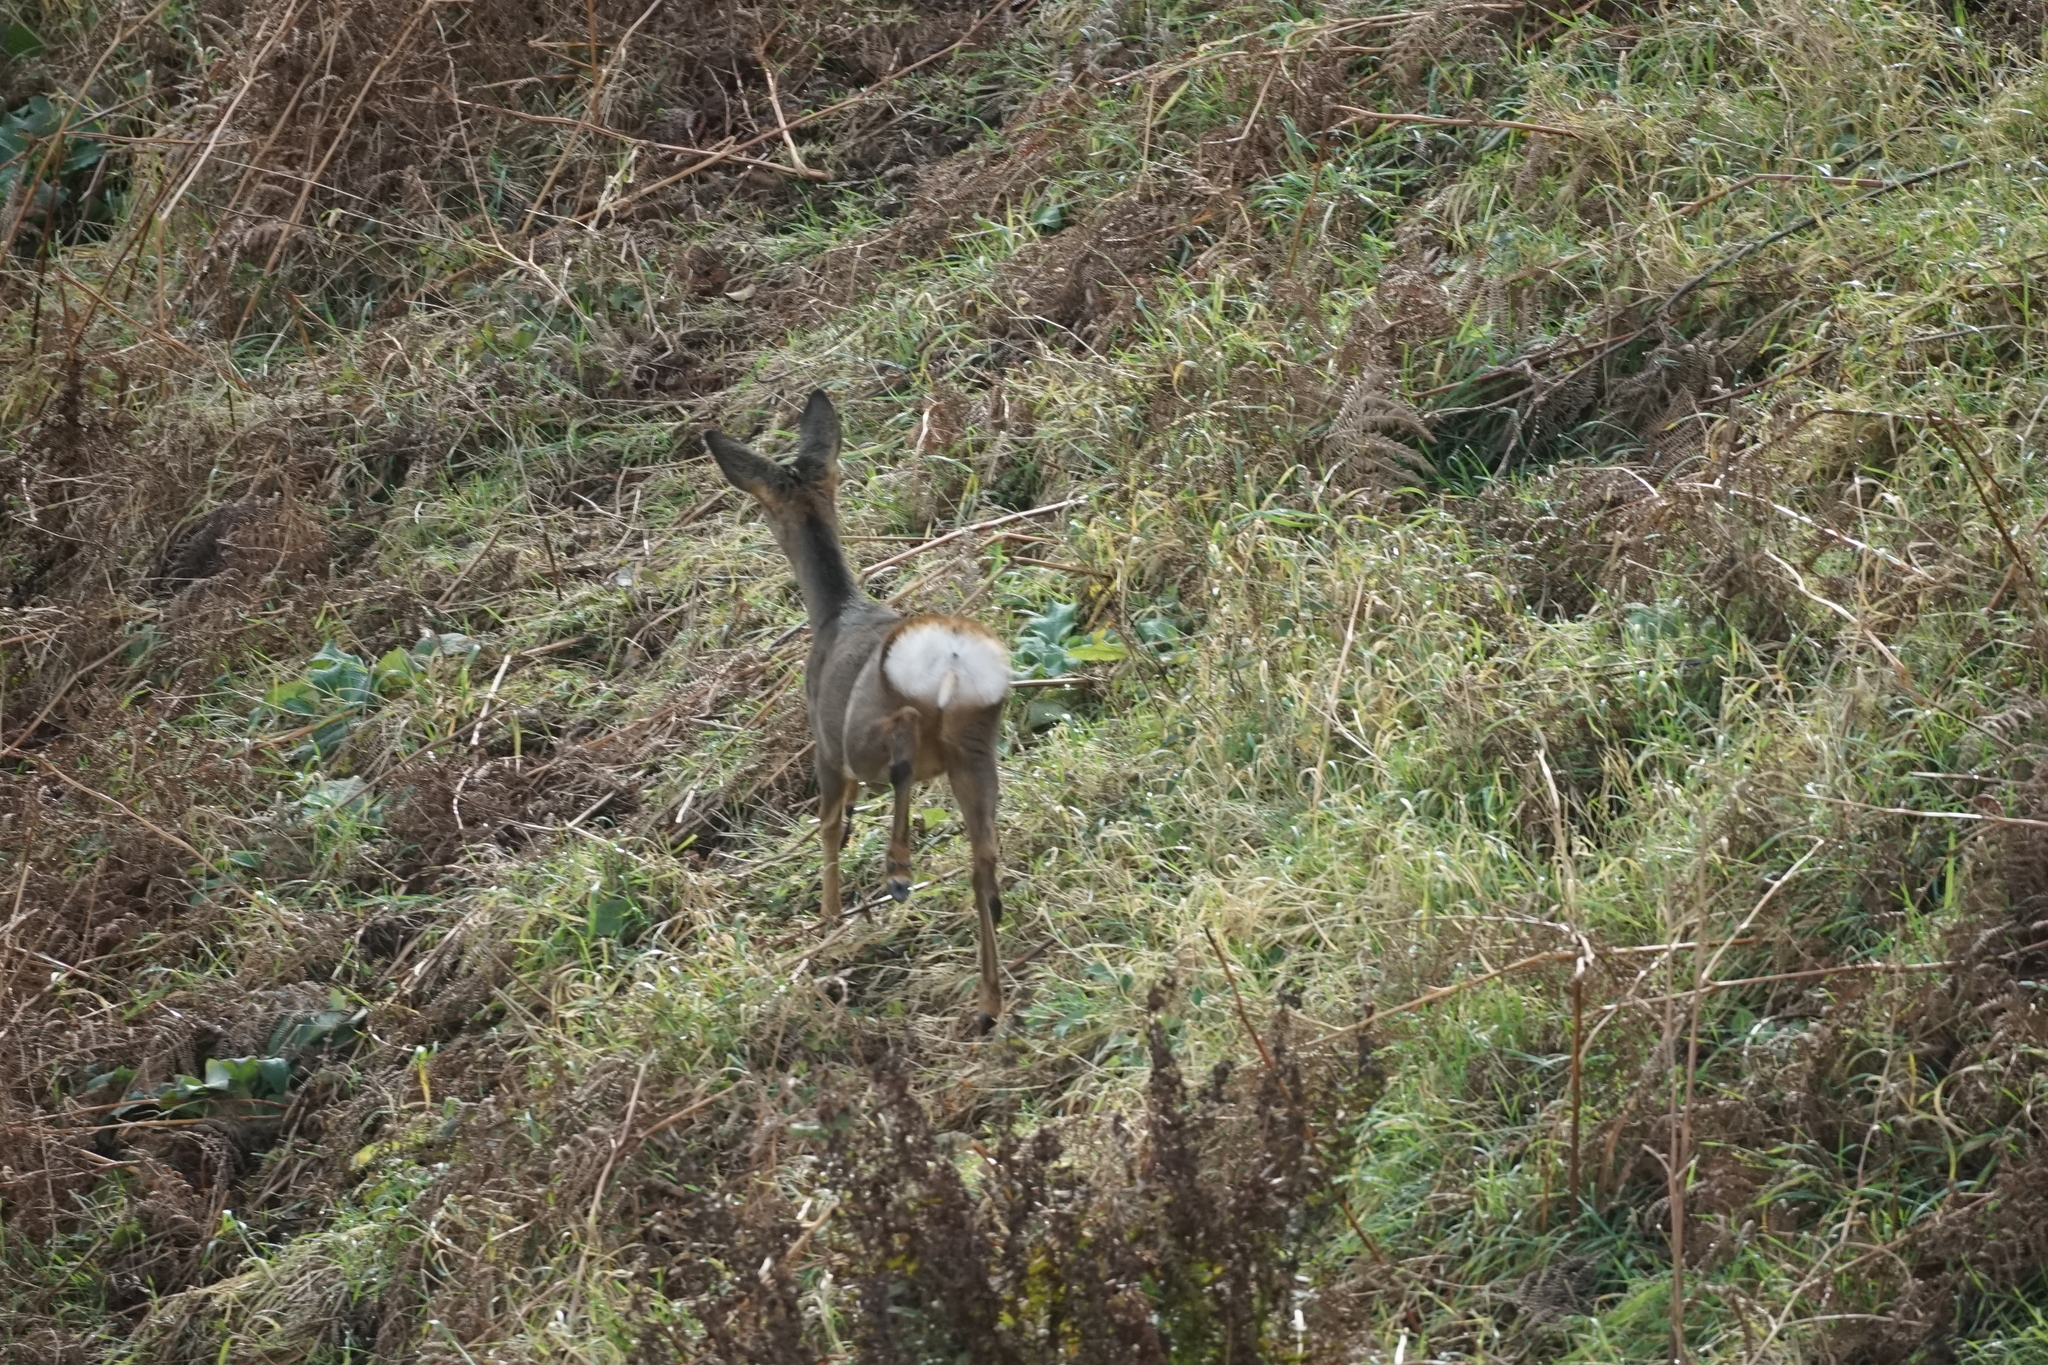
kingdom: Animalia
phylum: Chordata
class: Mammalia
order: Artiodactyla
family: Cervidae
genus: Capreolus
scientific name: Capreolus capreolus
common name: Western roe deer
